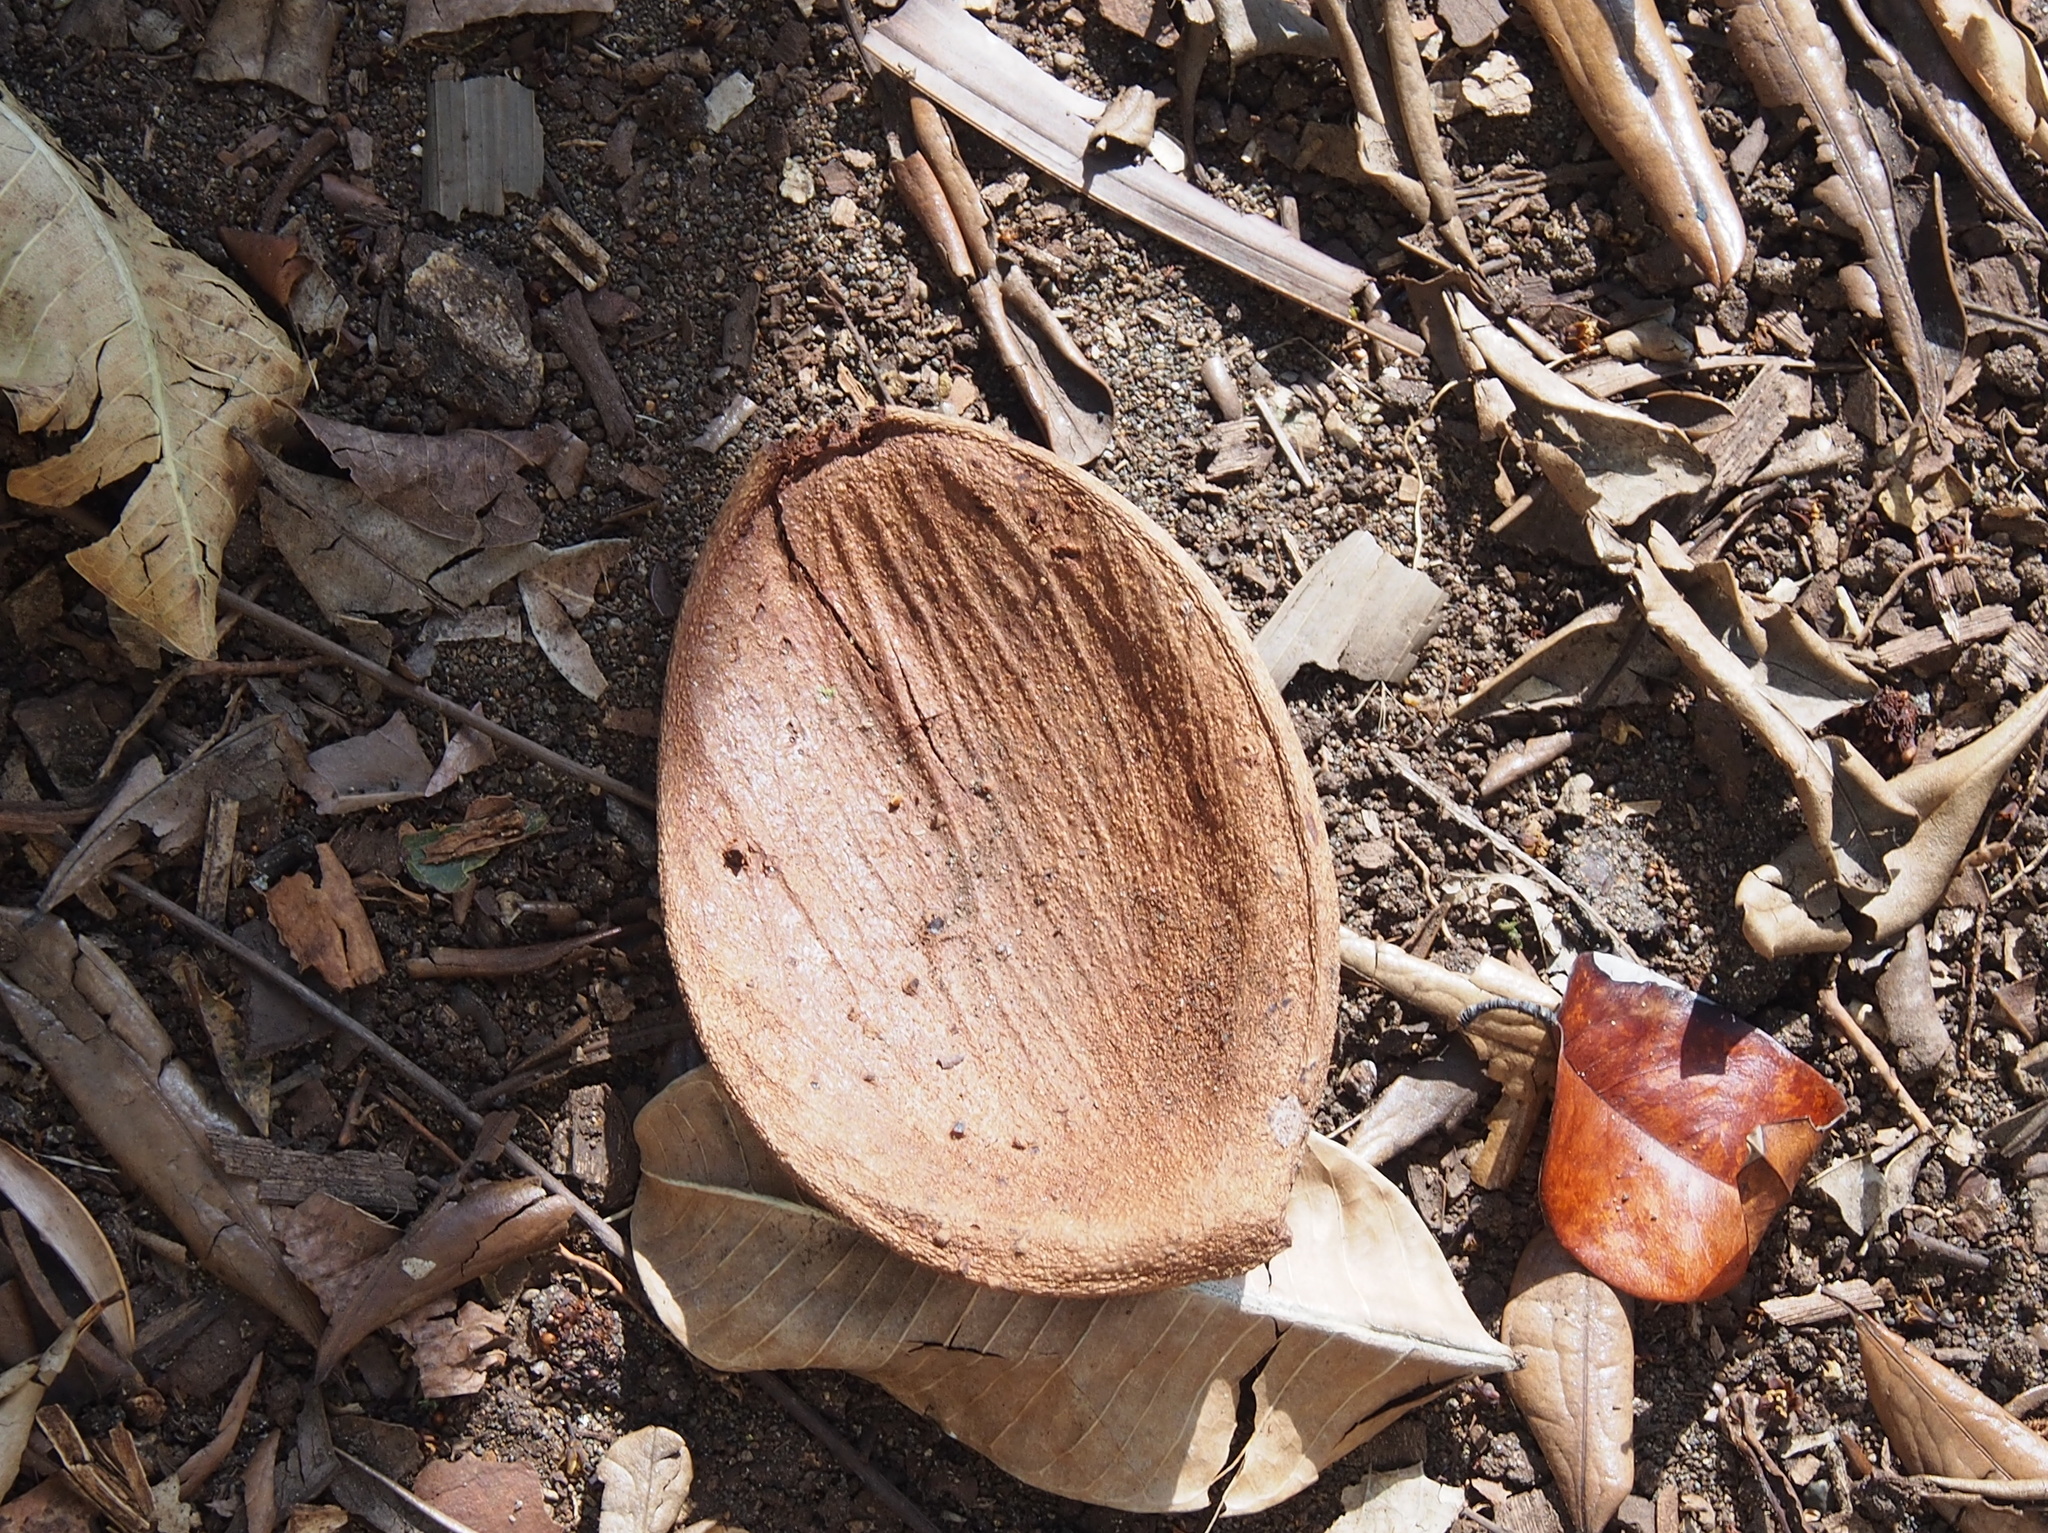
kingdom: Plantae
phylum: Tracheophyta
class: Magnoliopsida
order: Fabales
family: Fabaceae
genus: Prioria
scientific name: Prioria copaifera
